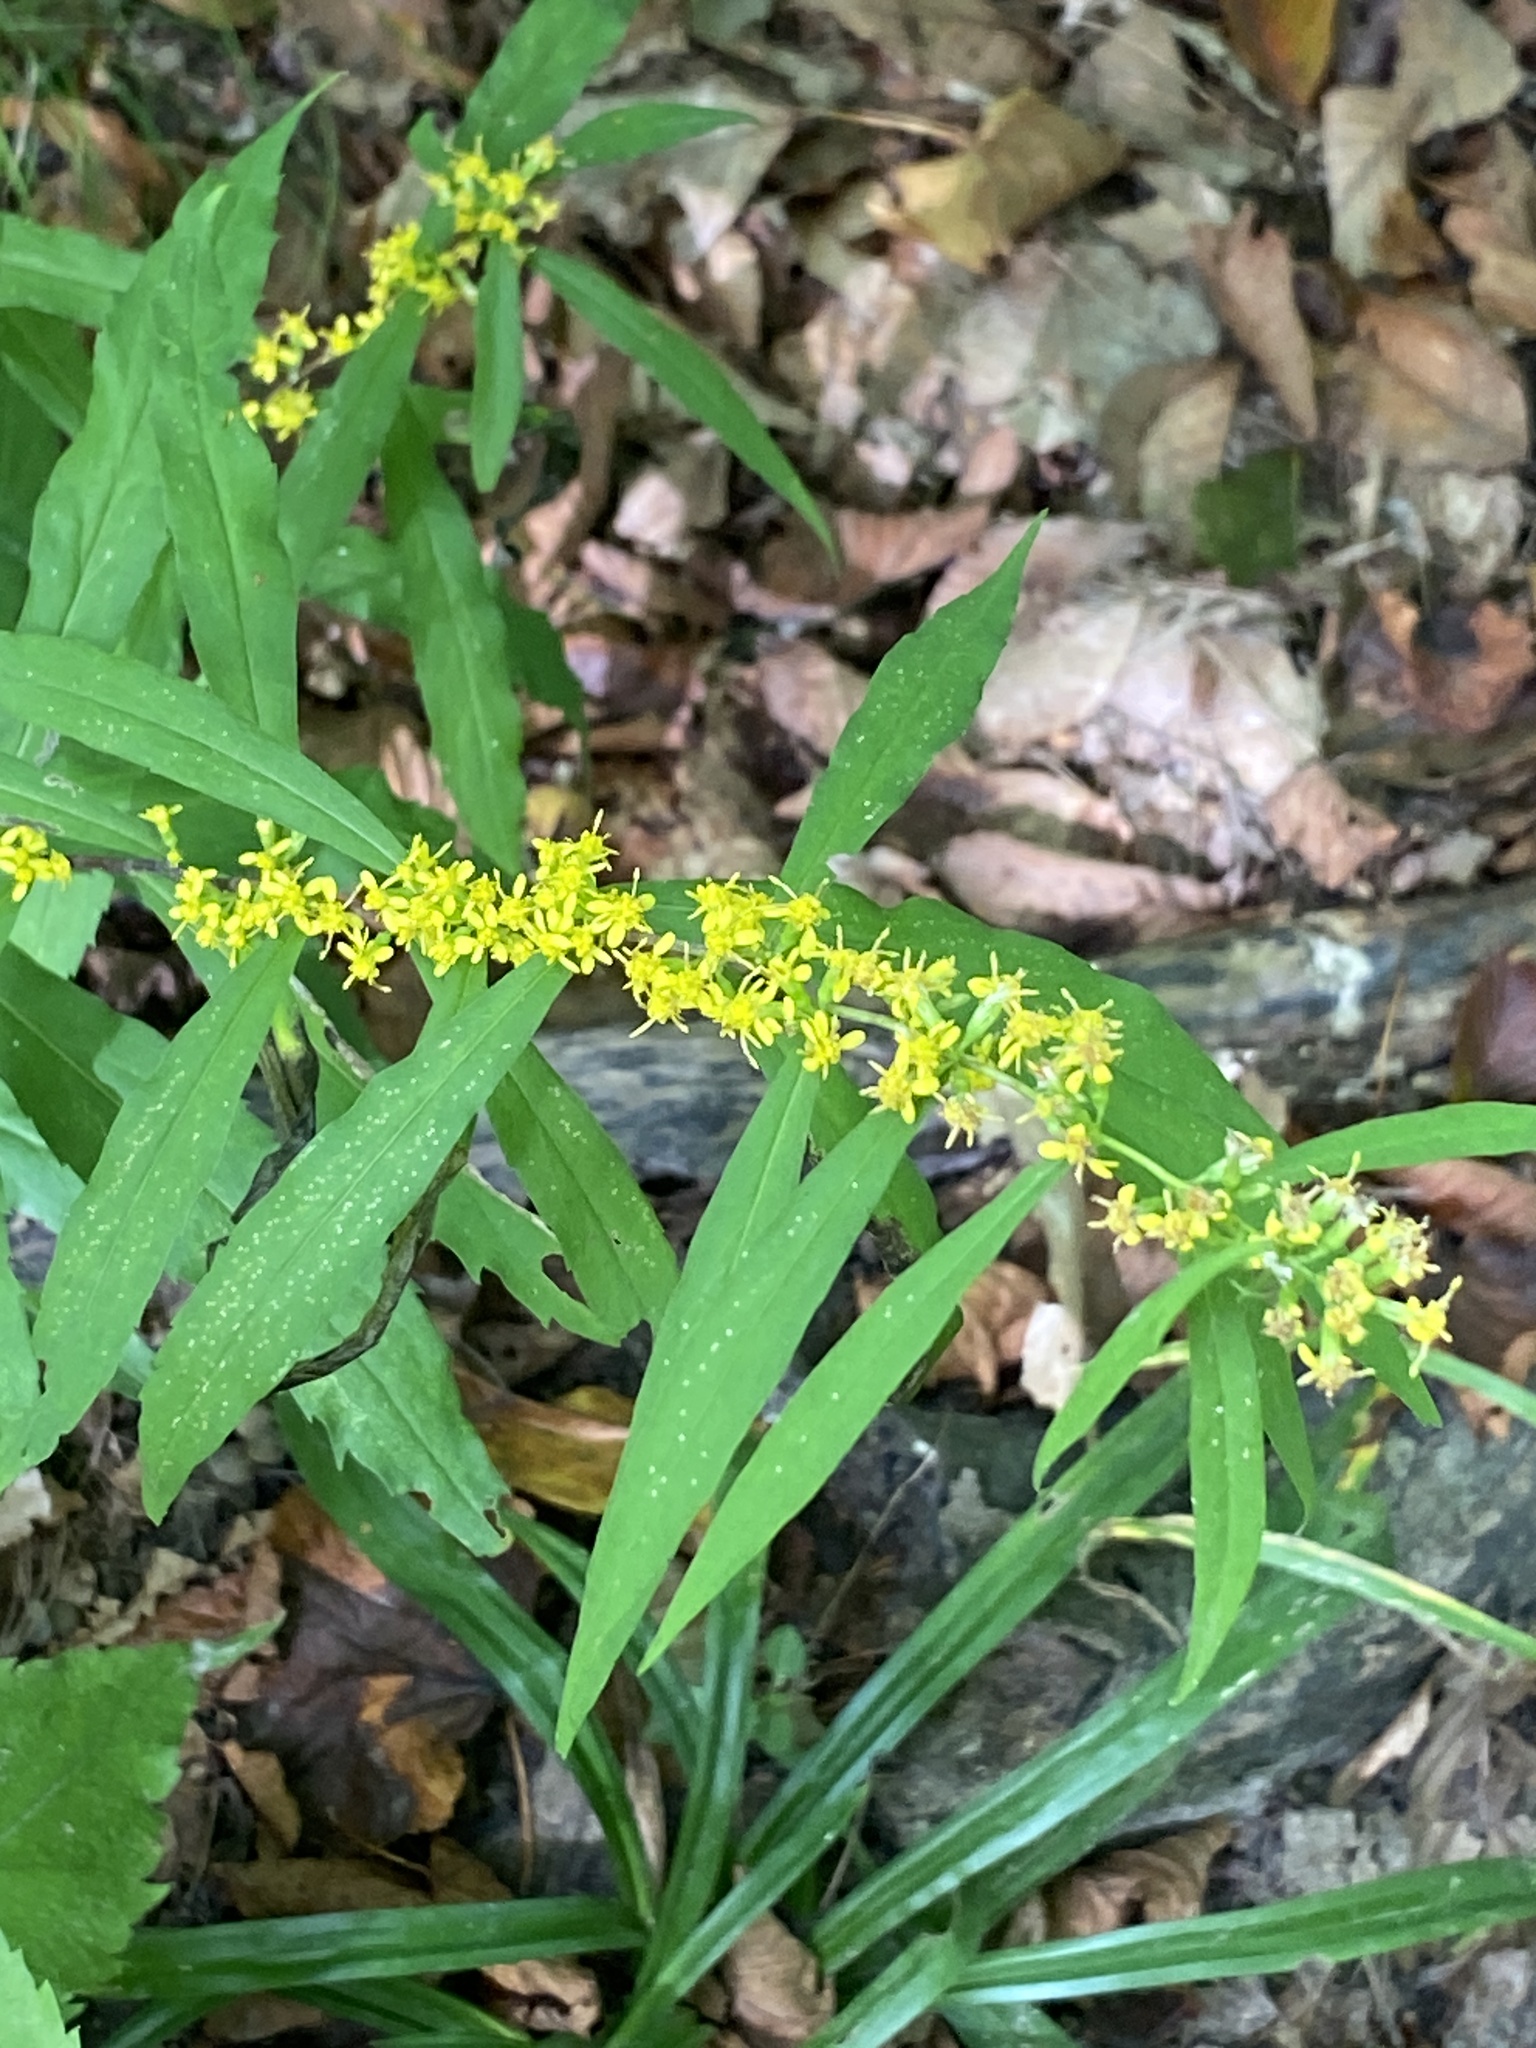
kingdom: Plantae
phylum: Tracheophyta
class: Magnoliopsida
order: Asterales
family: Asteraceae
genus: Solidago
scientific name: Solidago caesia
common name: Woodland goldenrod
